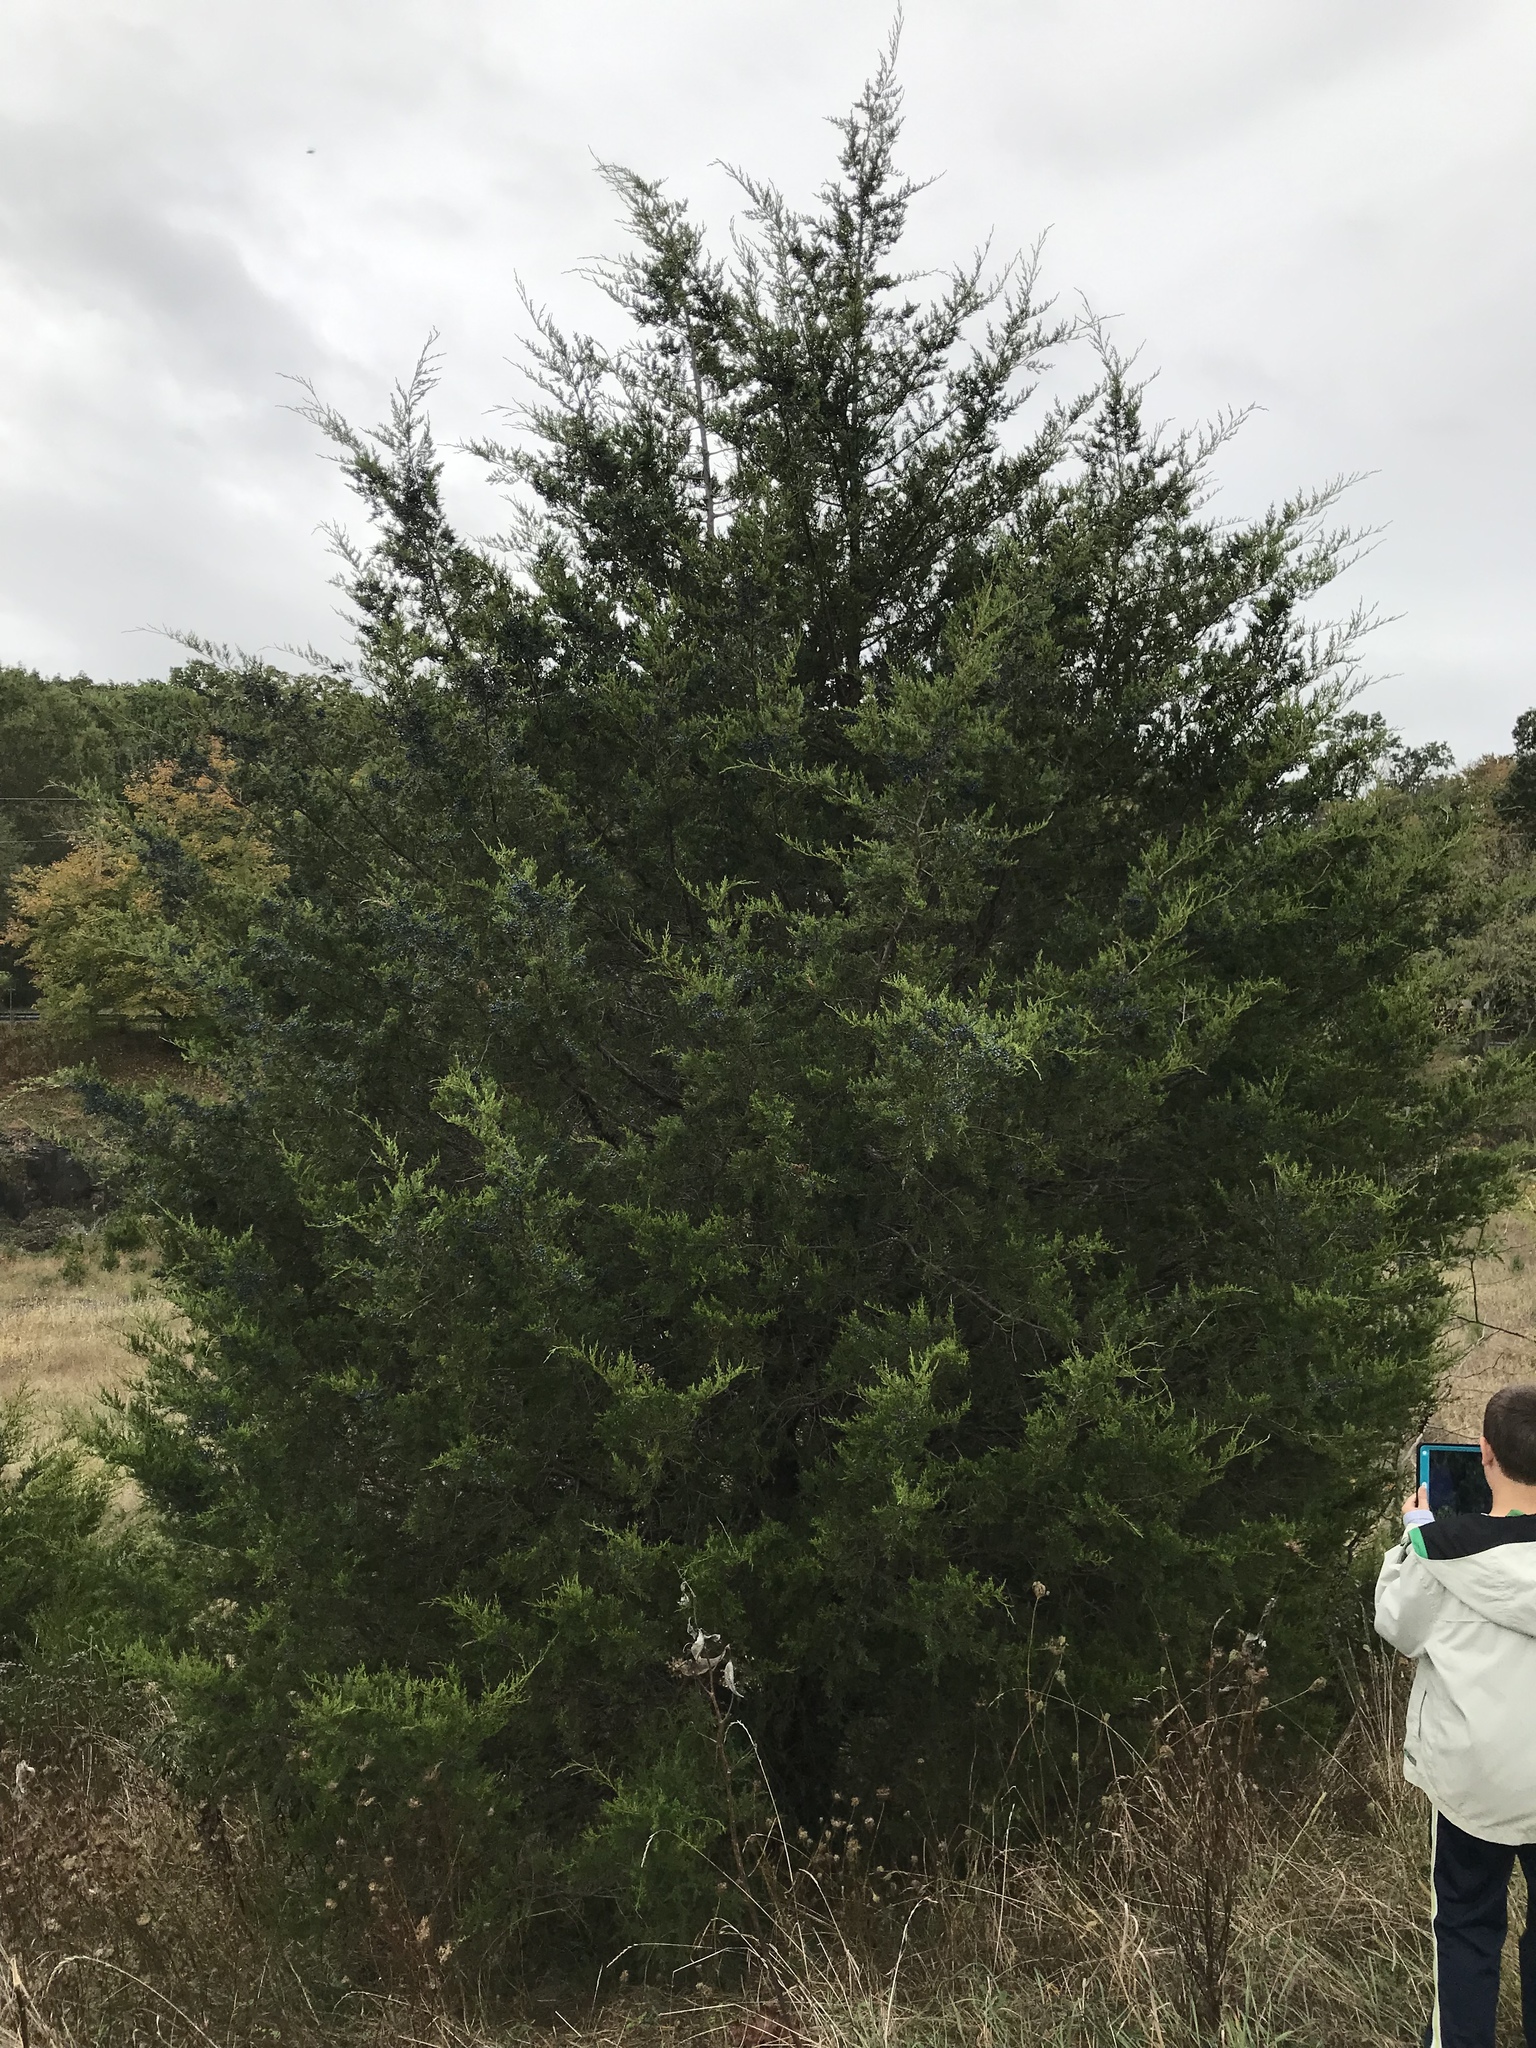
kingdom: Plantae
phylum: Tracheophyta
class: Pinopsida
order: Pinales
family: Cupressaceae
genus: Juniperus
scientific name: Juniperus virginiana
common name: Red juniper
